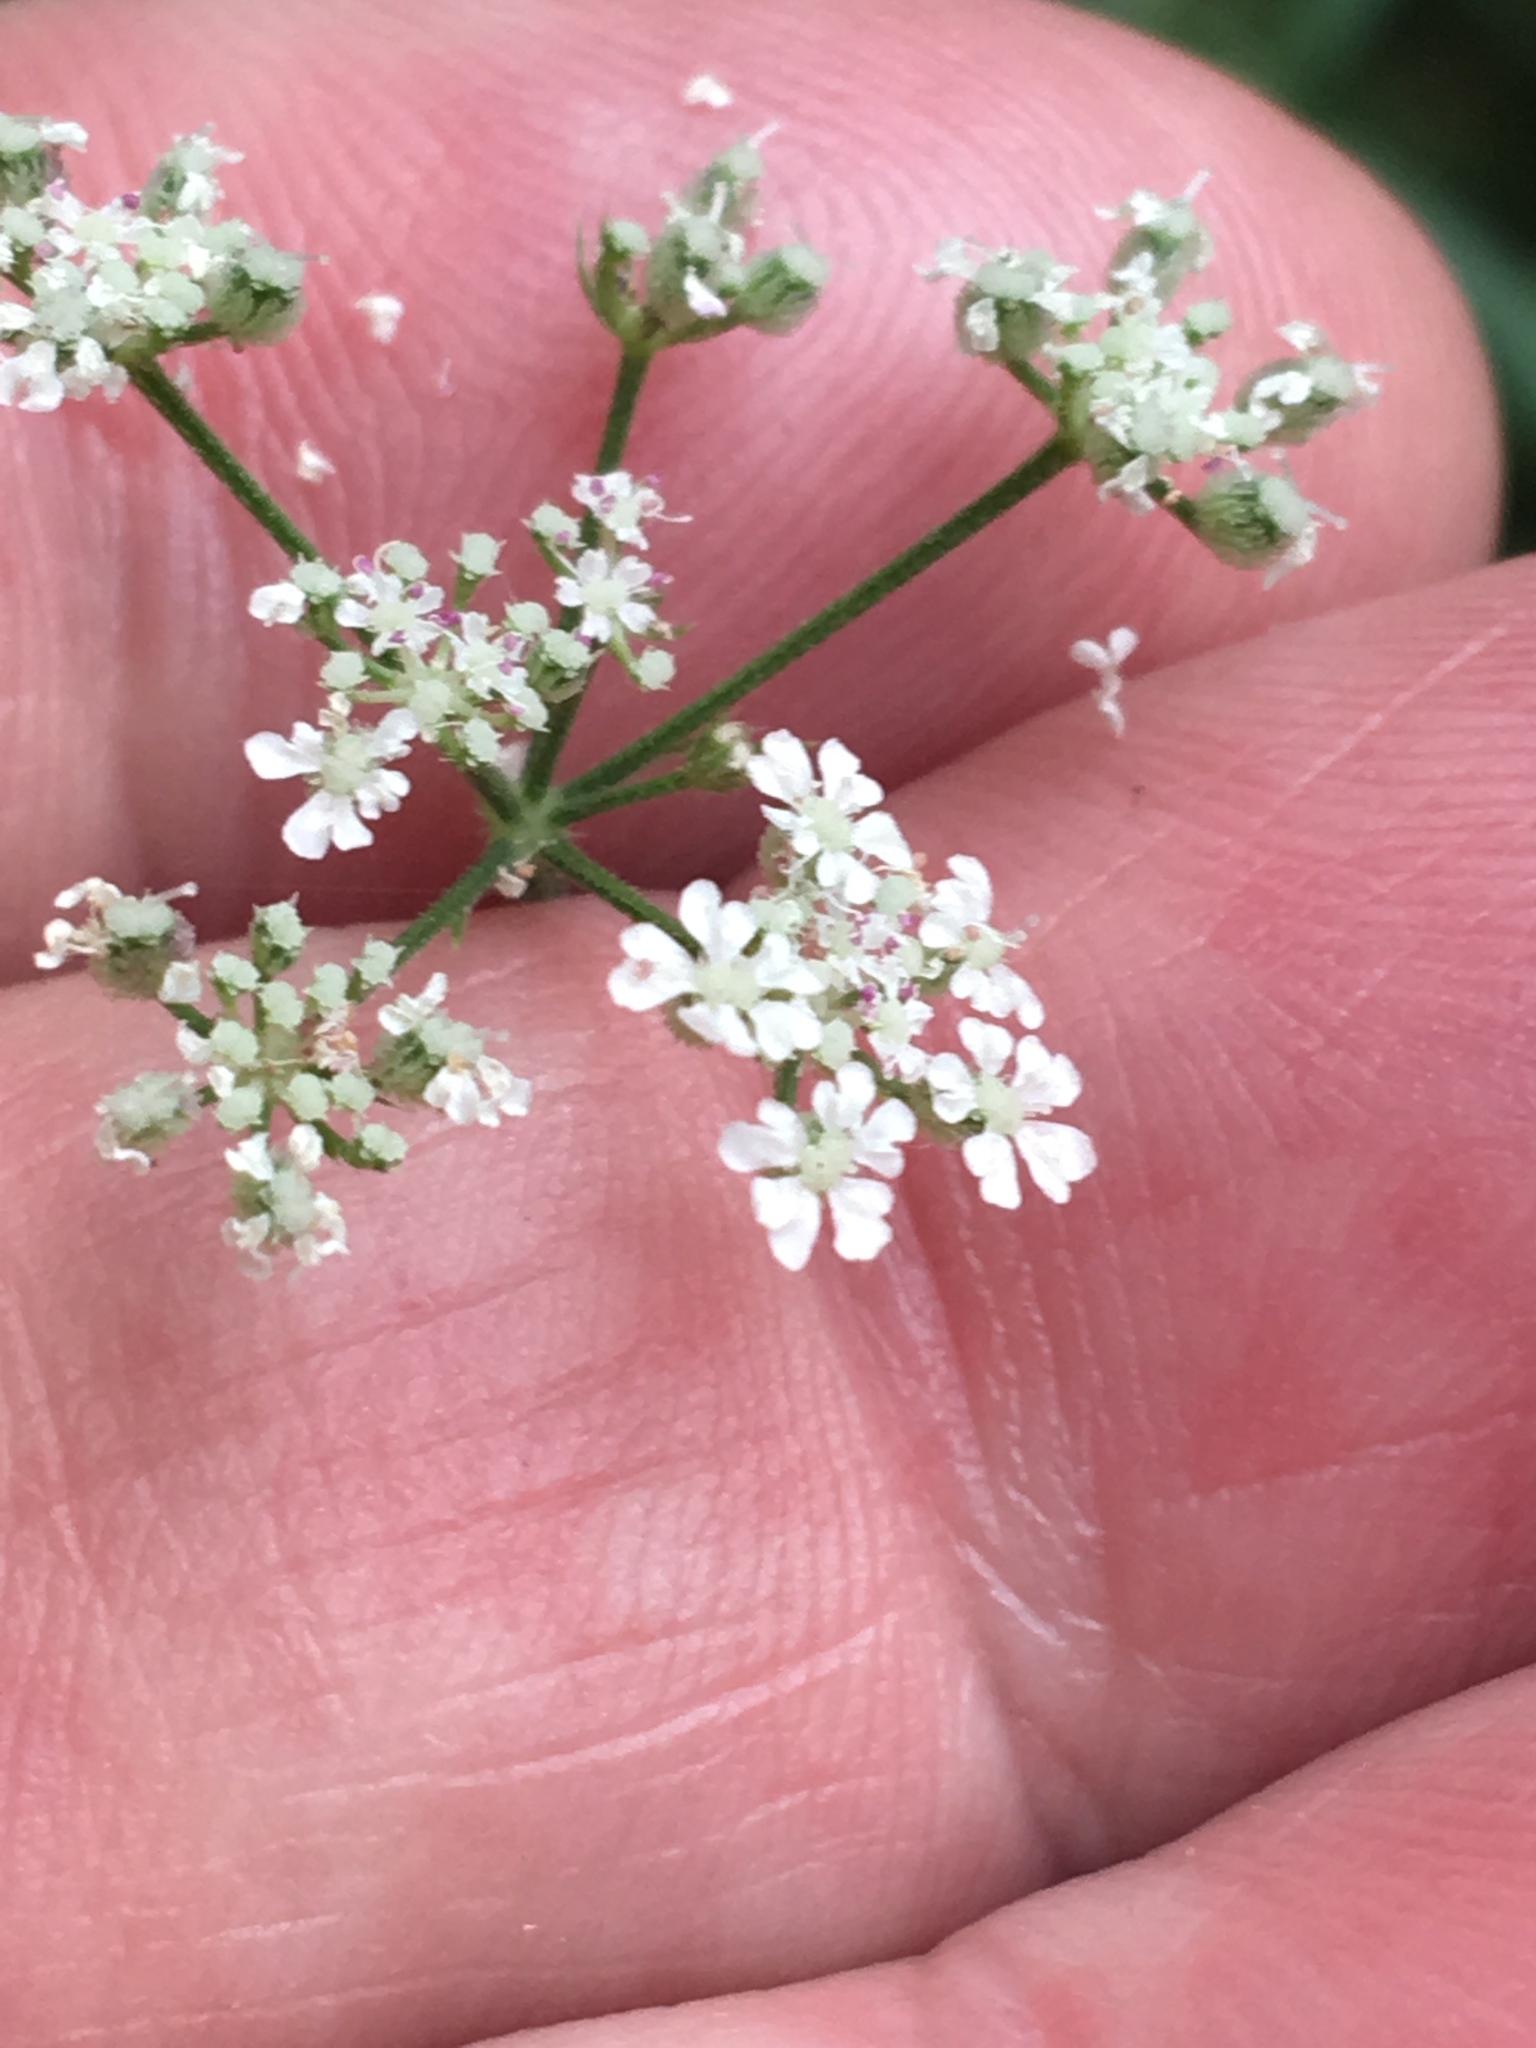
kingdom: Plantae
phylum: Tracheophyta
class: Magnoliopsida
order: Apiales
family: Apiaceae
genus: Torilis
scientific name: Torilis japonica
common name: Upright hedge-parsley
